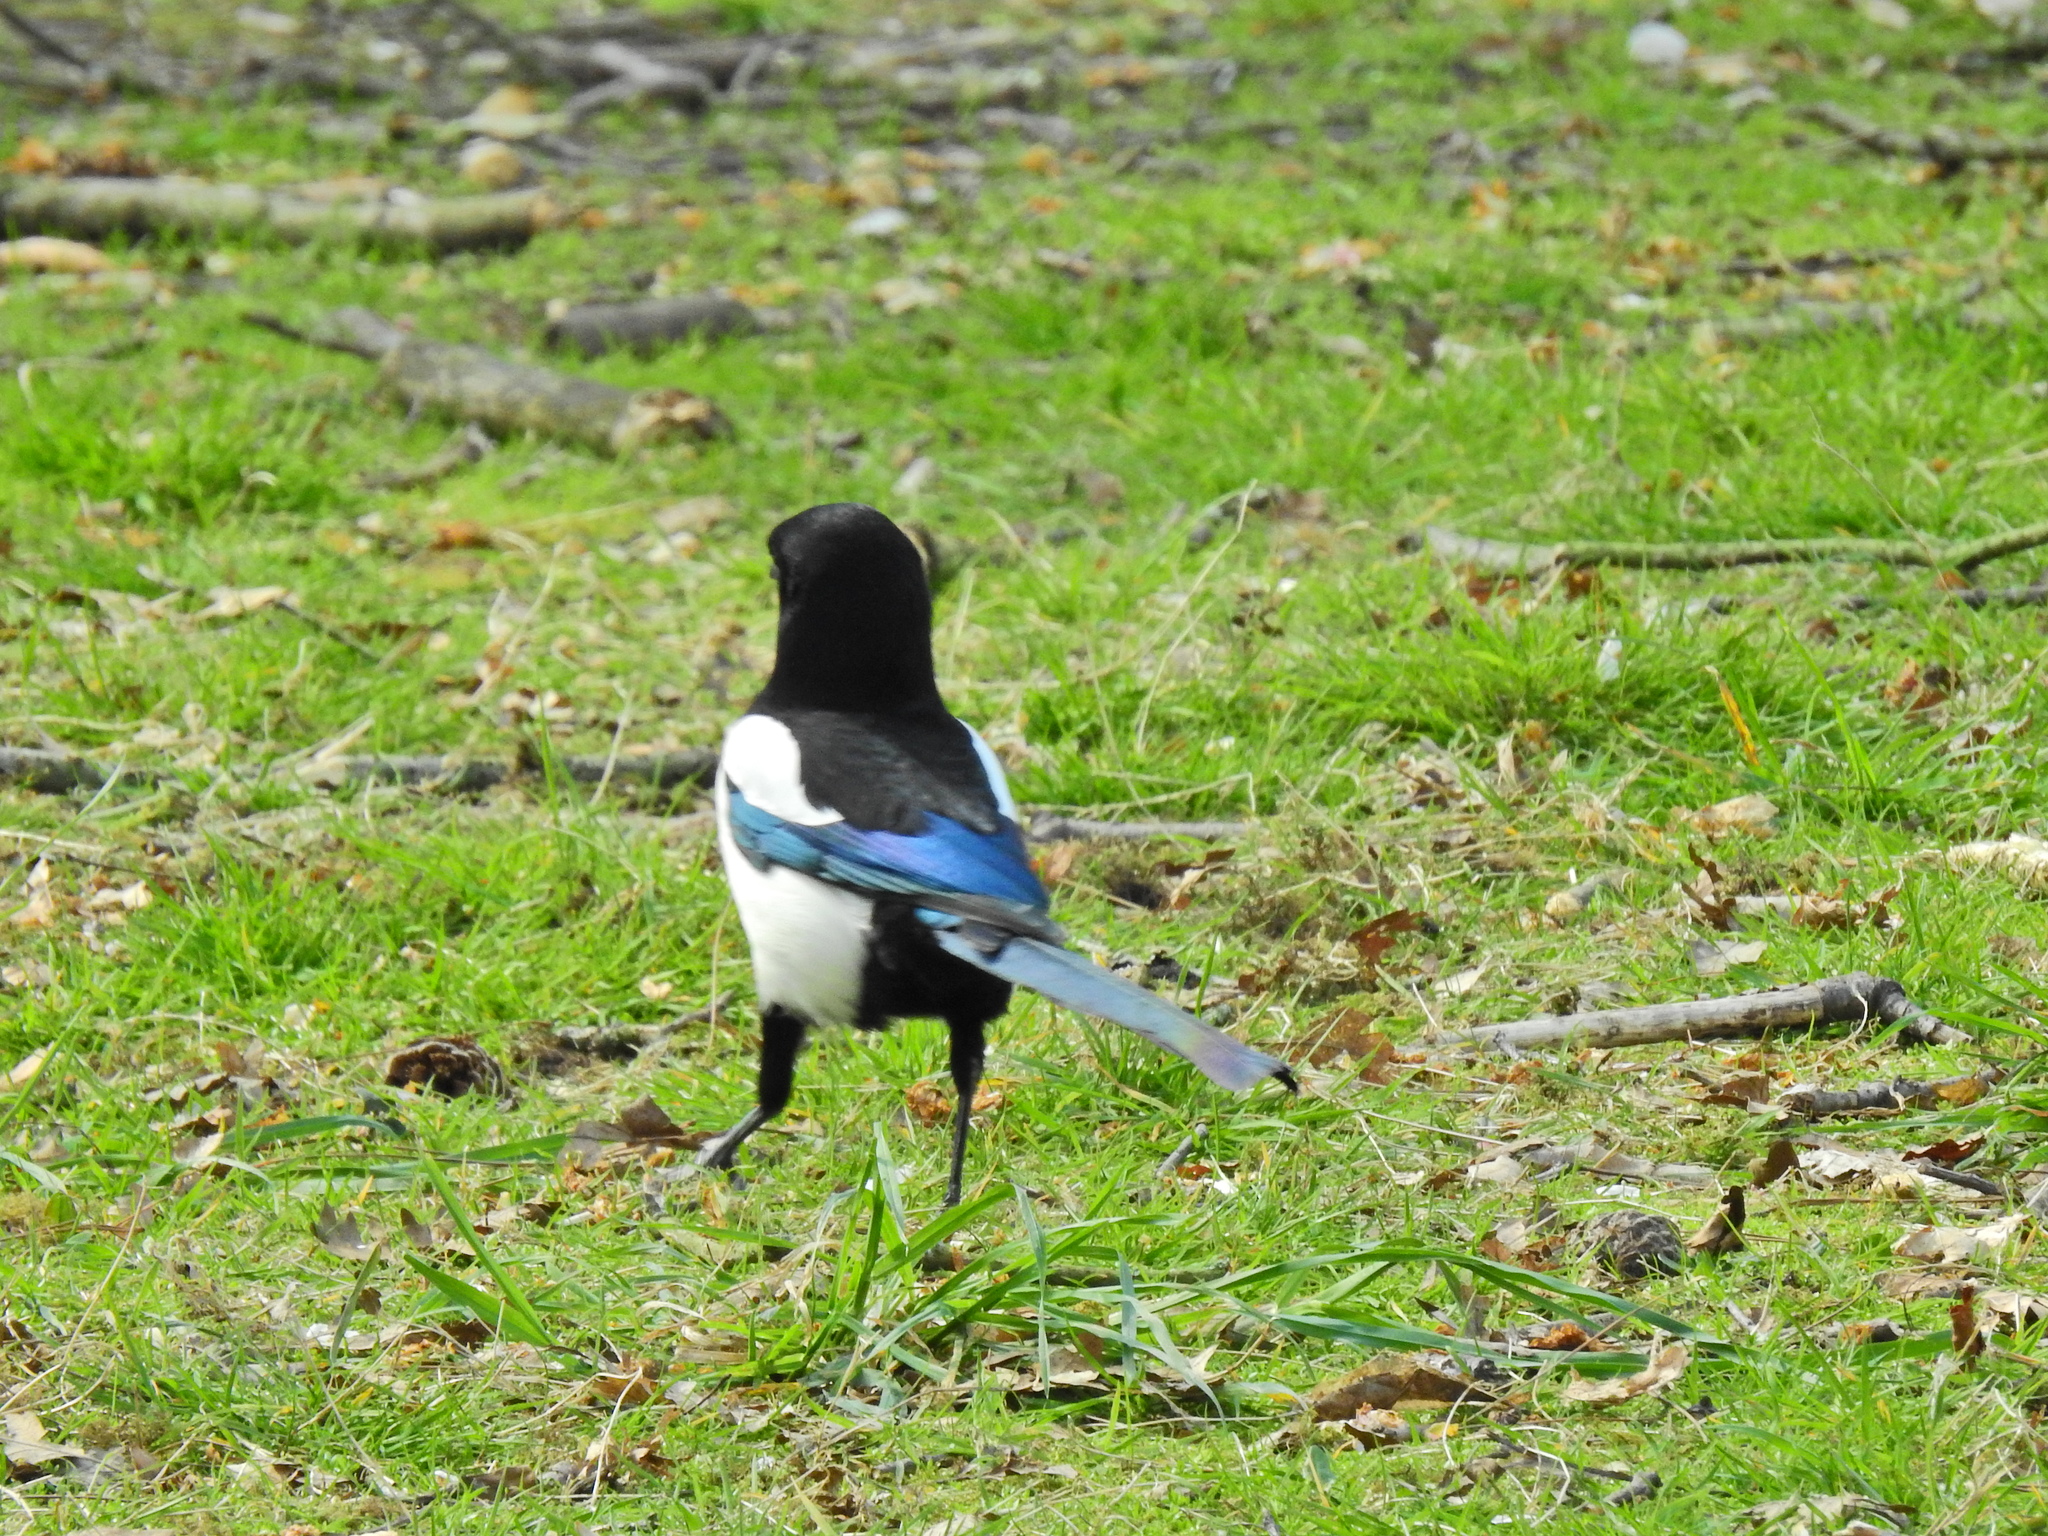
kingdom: Animalia
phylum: Chordata
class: Aves
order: Passeriformes
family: Corvidae
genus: Pica
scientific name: Pica pica
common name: Eurasian magpie
